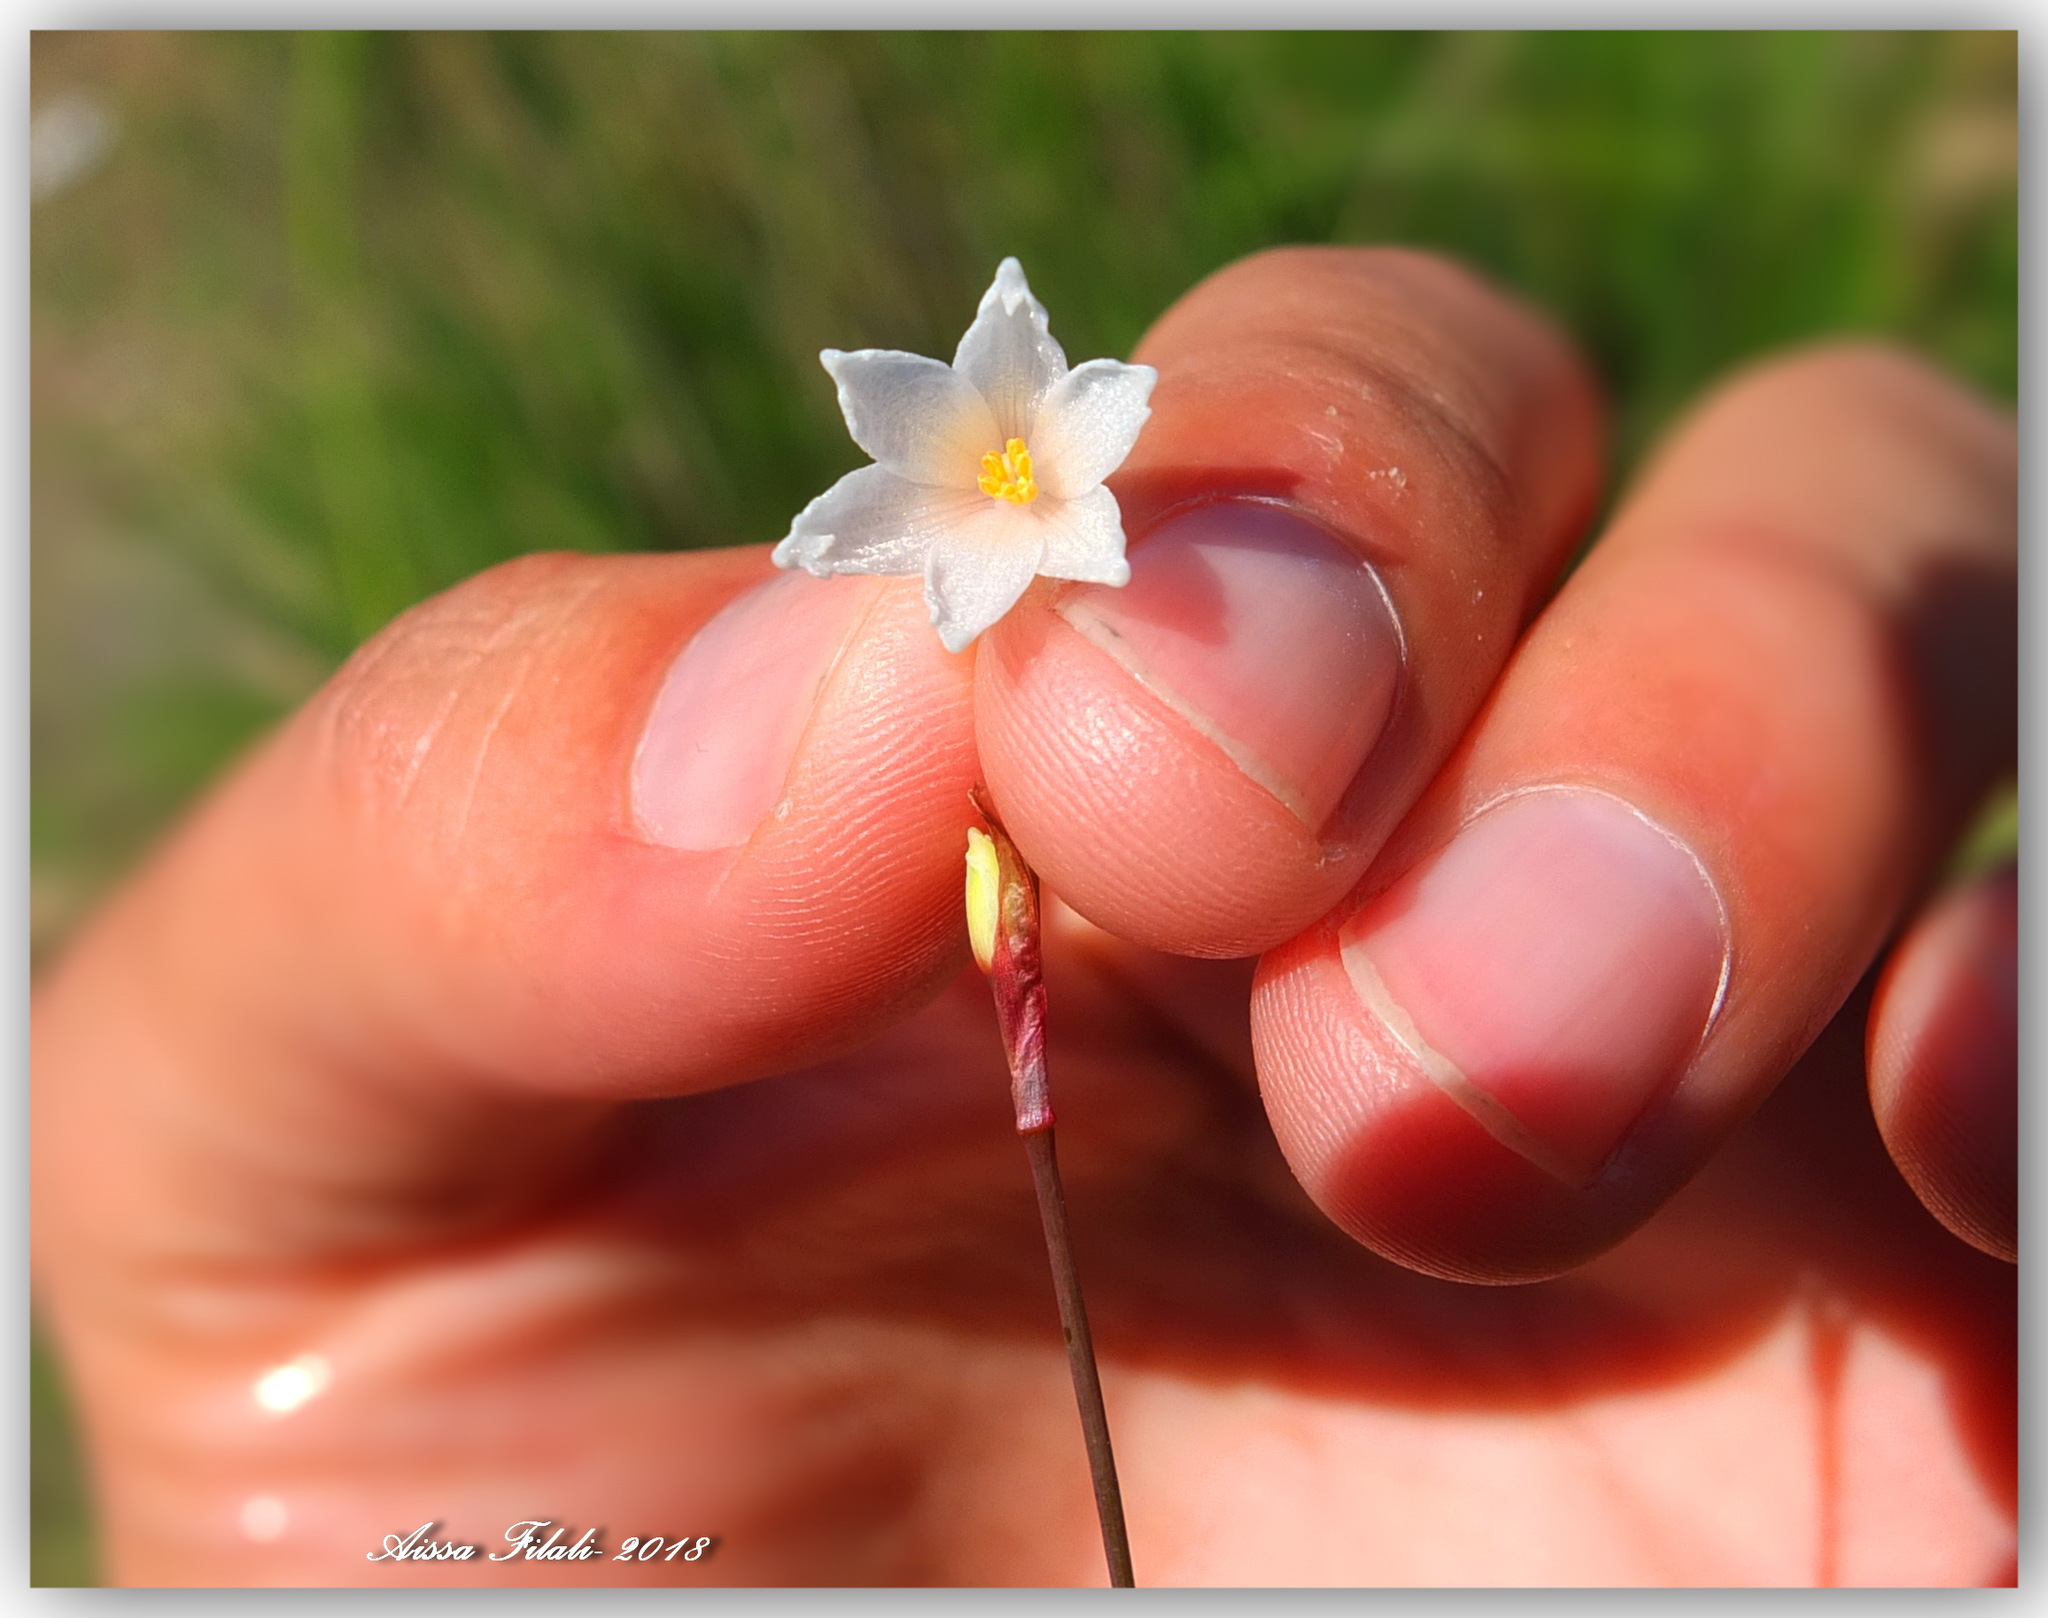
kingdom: Plantae
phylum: Tracheophyta
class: Liliopsida
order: Asparagales
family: Amaryllidaceae
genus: Acis
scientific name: Acis autumnalis
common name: Autumn snowflake
